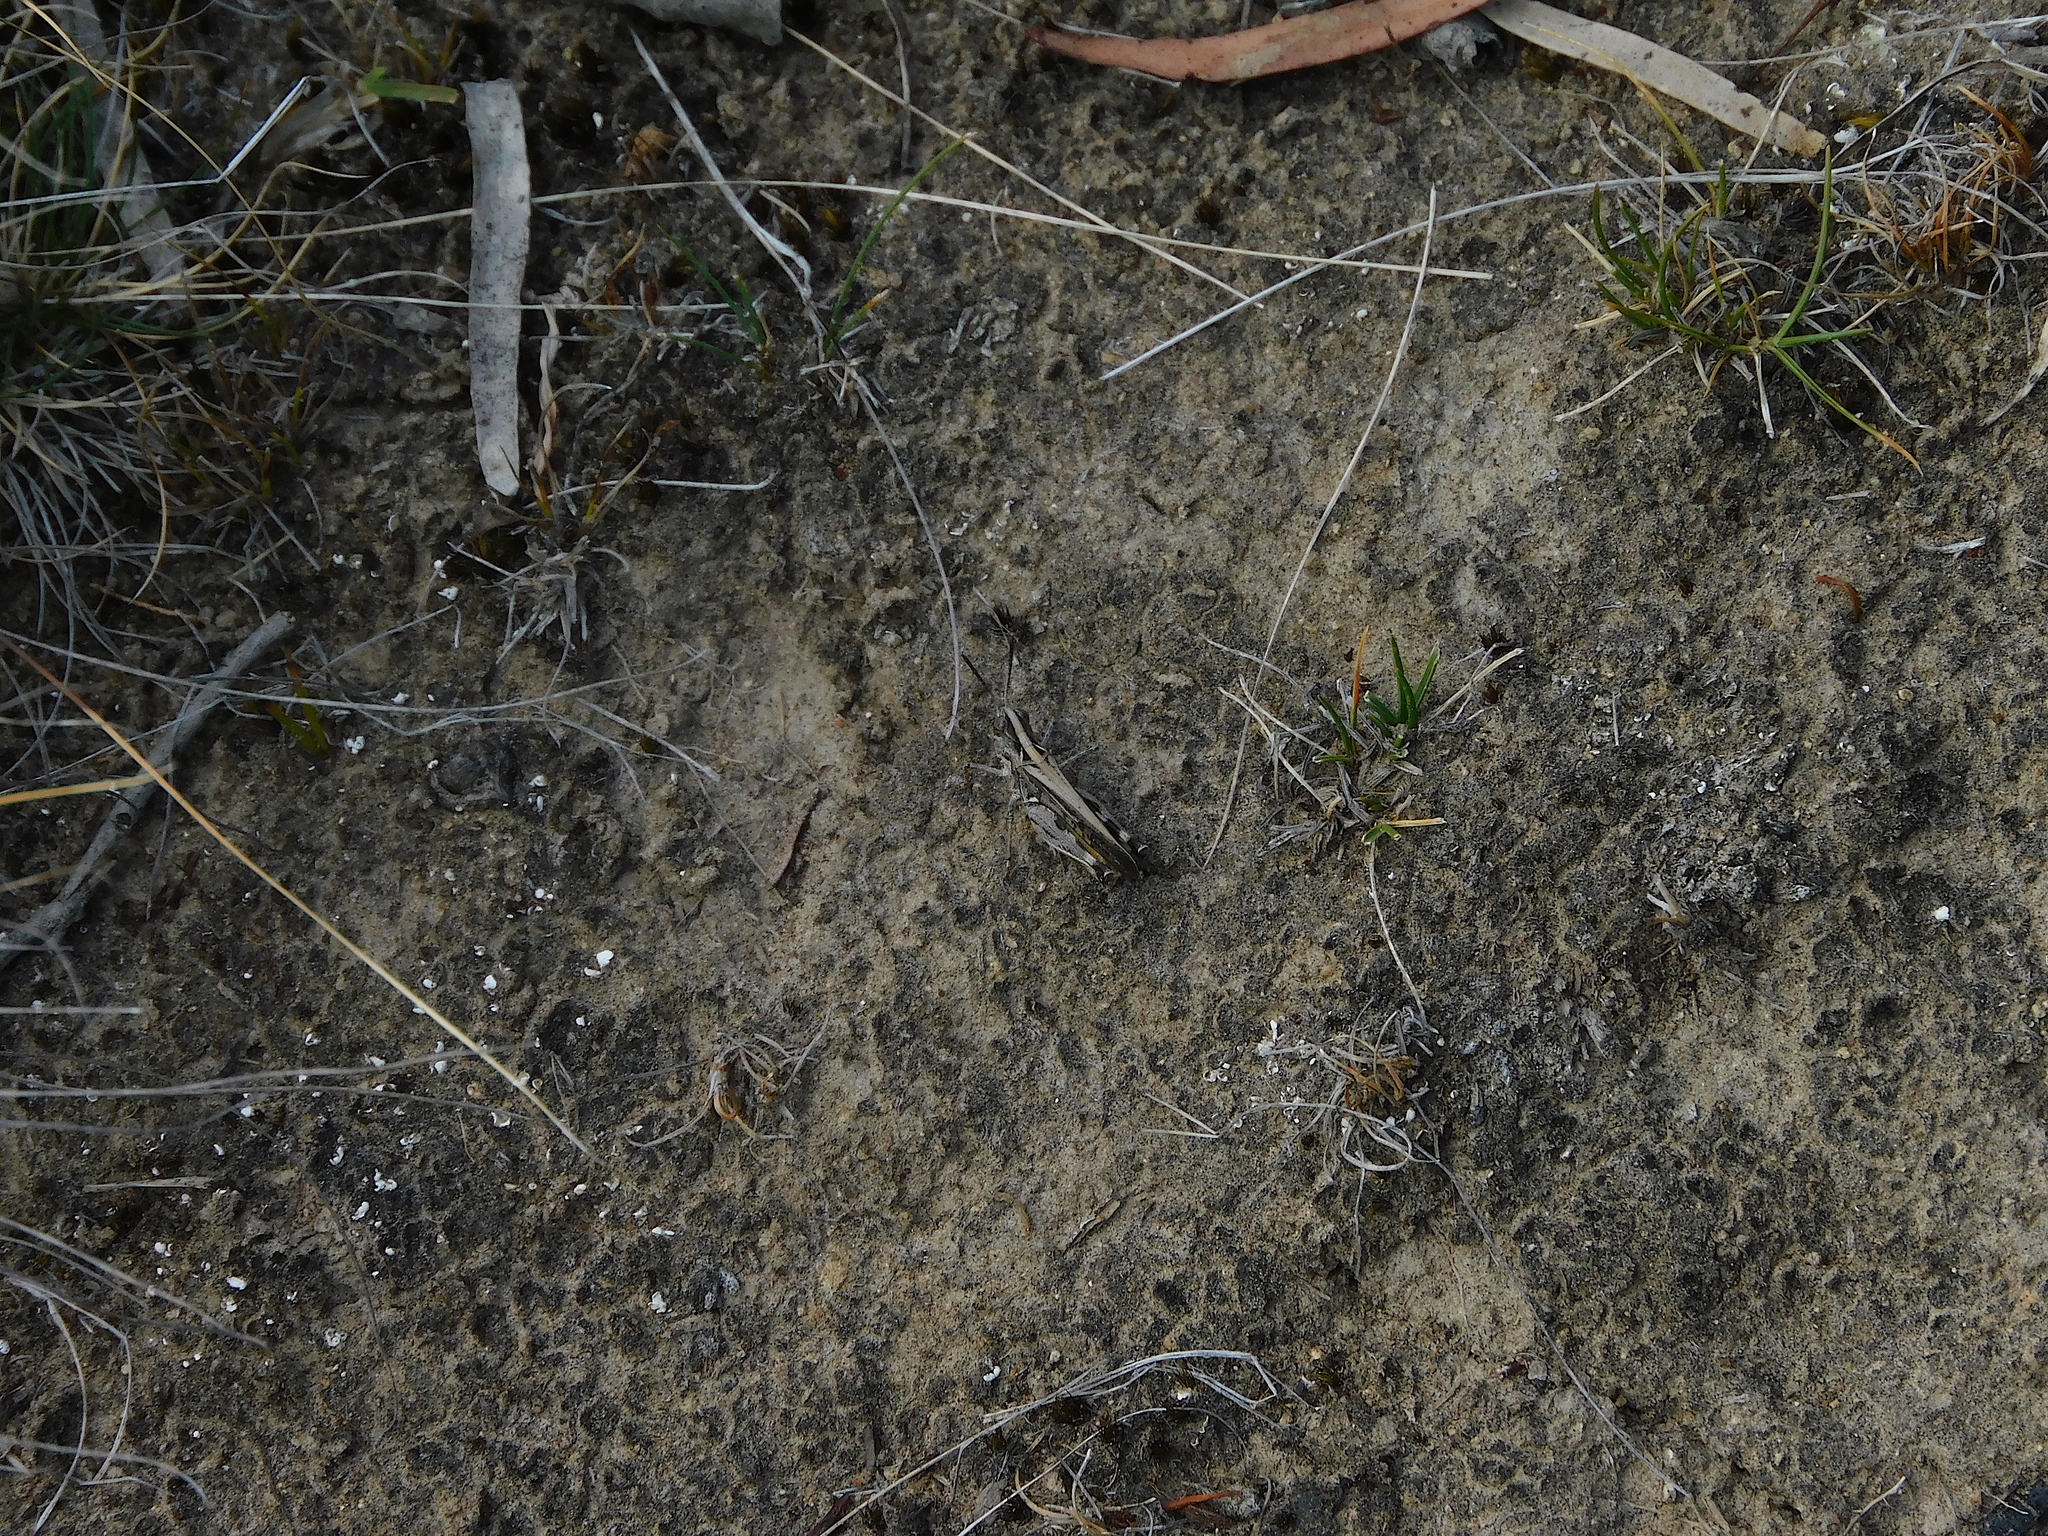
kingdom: Animalia
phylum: Arthropoda
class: Insecta
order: Orthoptera
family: Acrididae
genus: Cryptobothrus
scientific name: Cryptobothrus chrysophorus
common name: Golden bandwing
